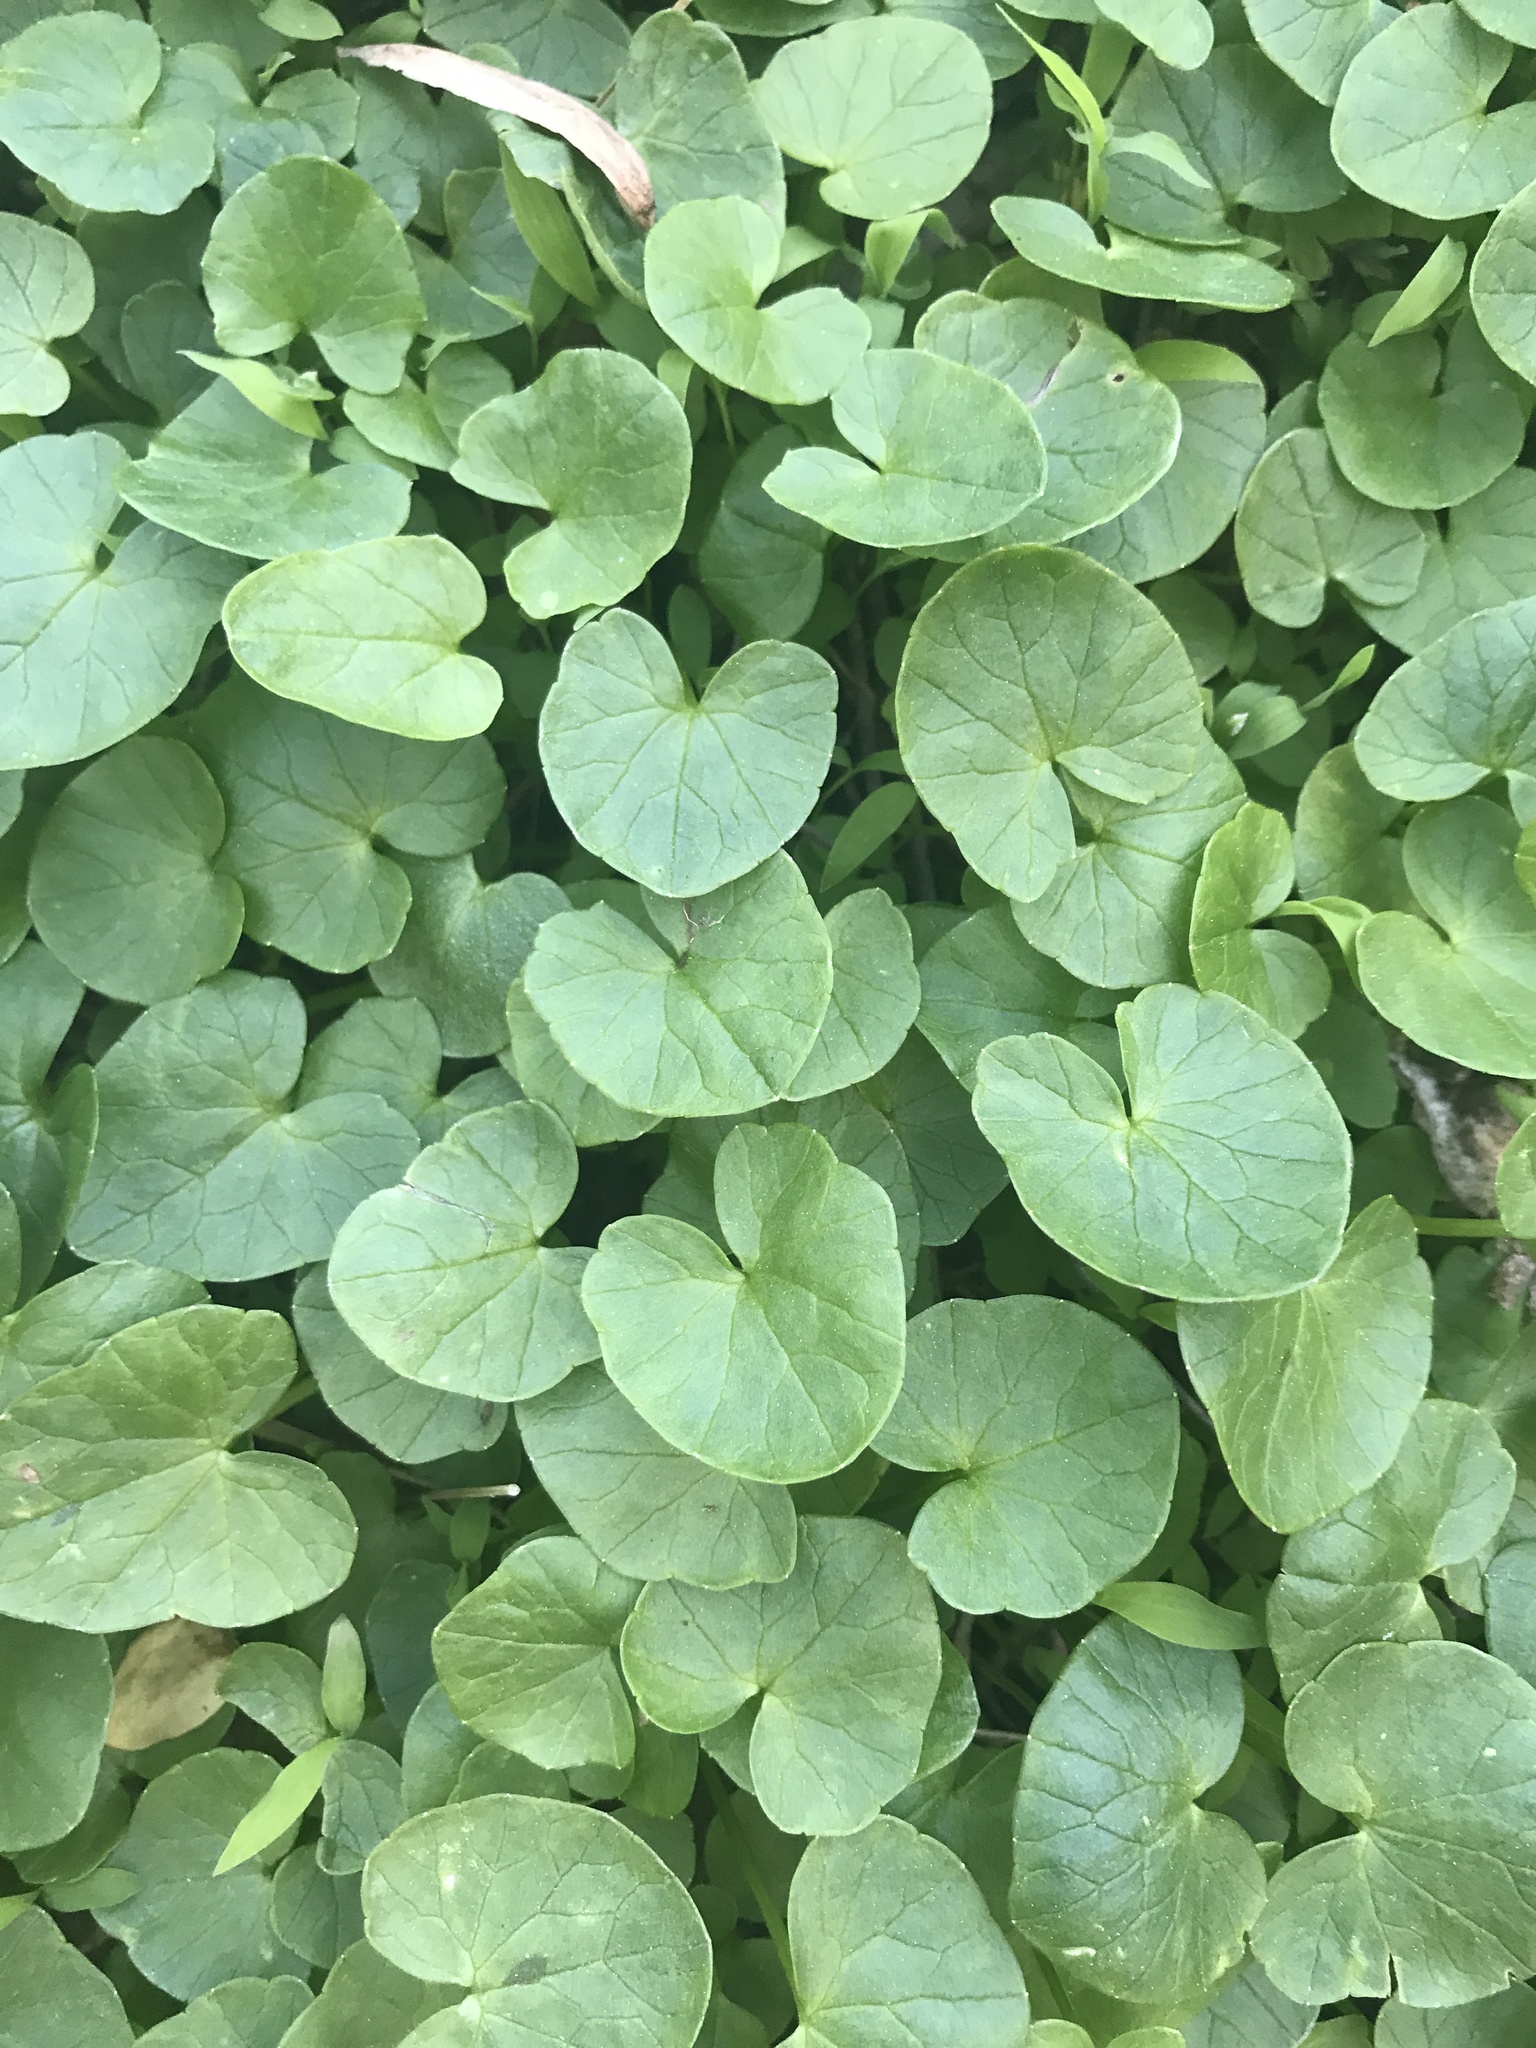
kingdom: Plantae
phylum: Tracheophyta
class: Magnoliopsida
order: Ranunculales
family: Ranunculaceae
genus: Ficaria
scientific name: Ficaria verna
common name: Lesser celandine
